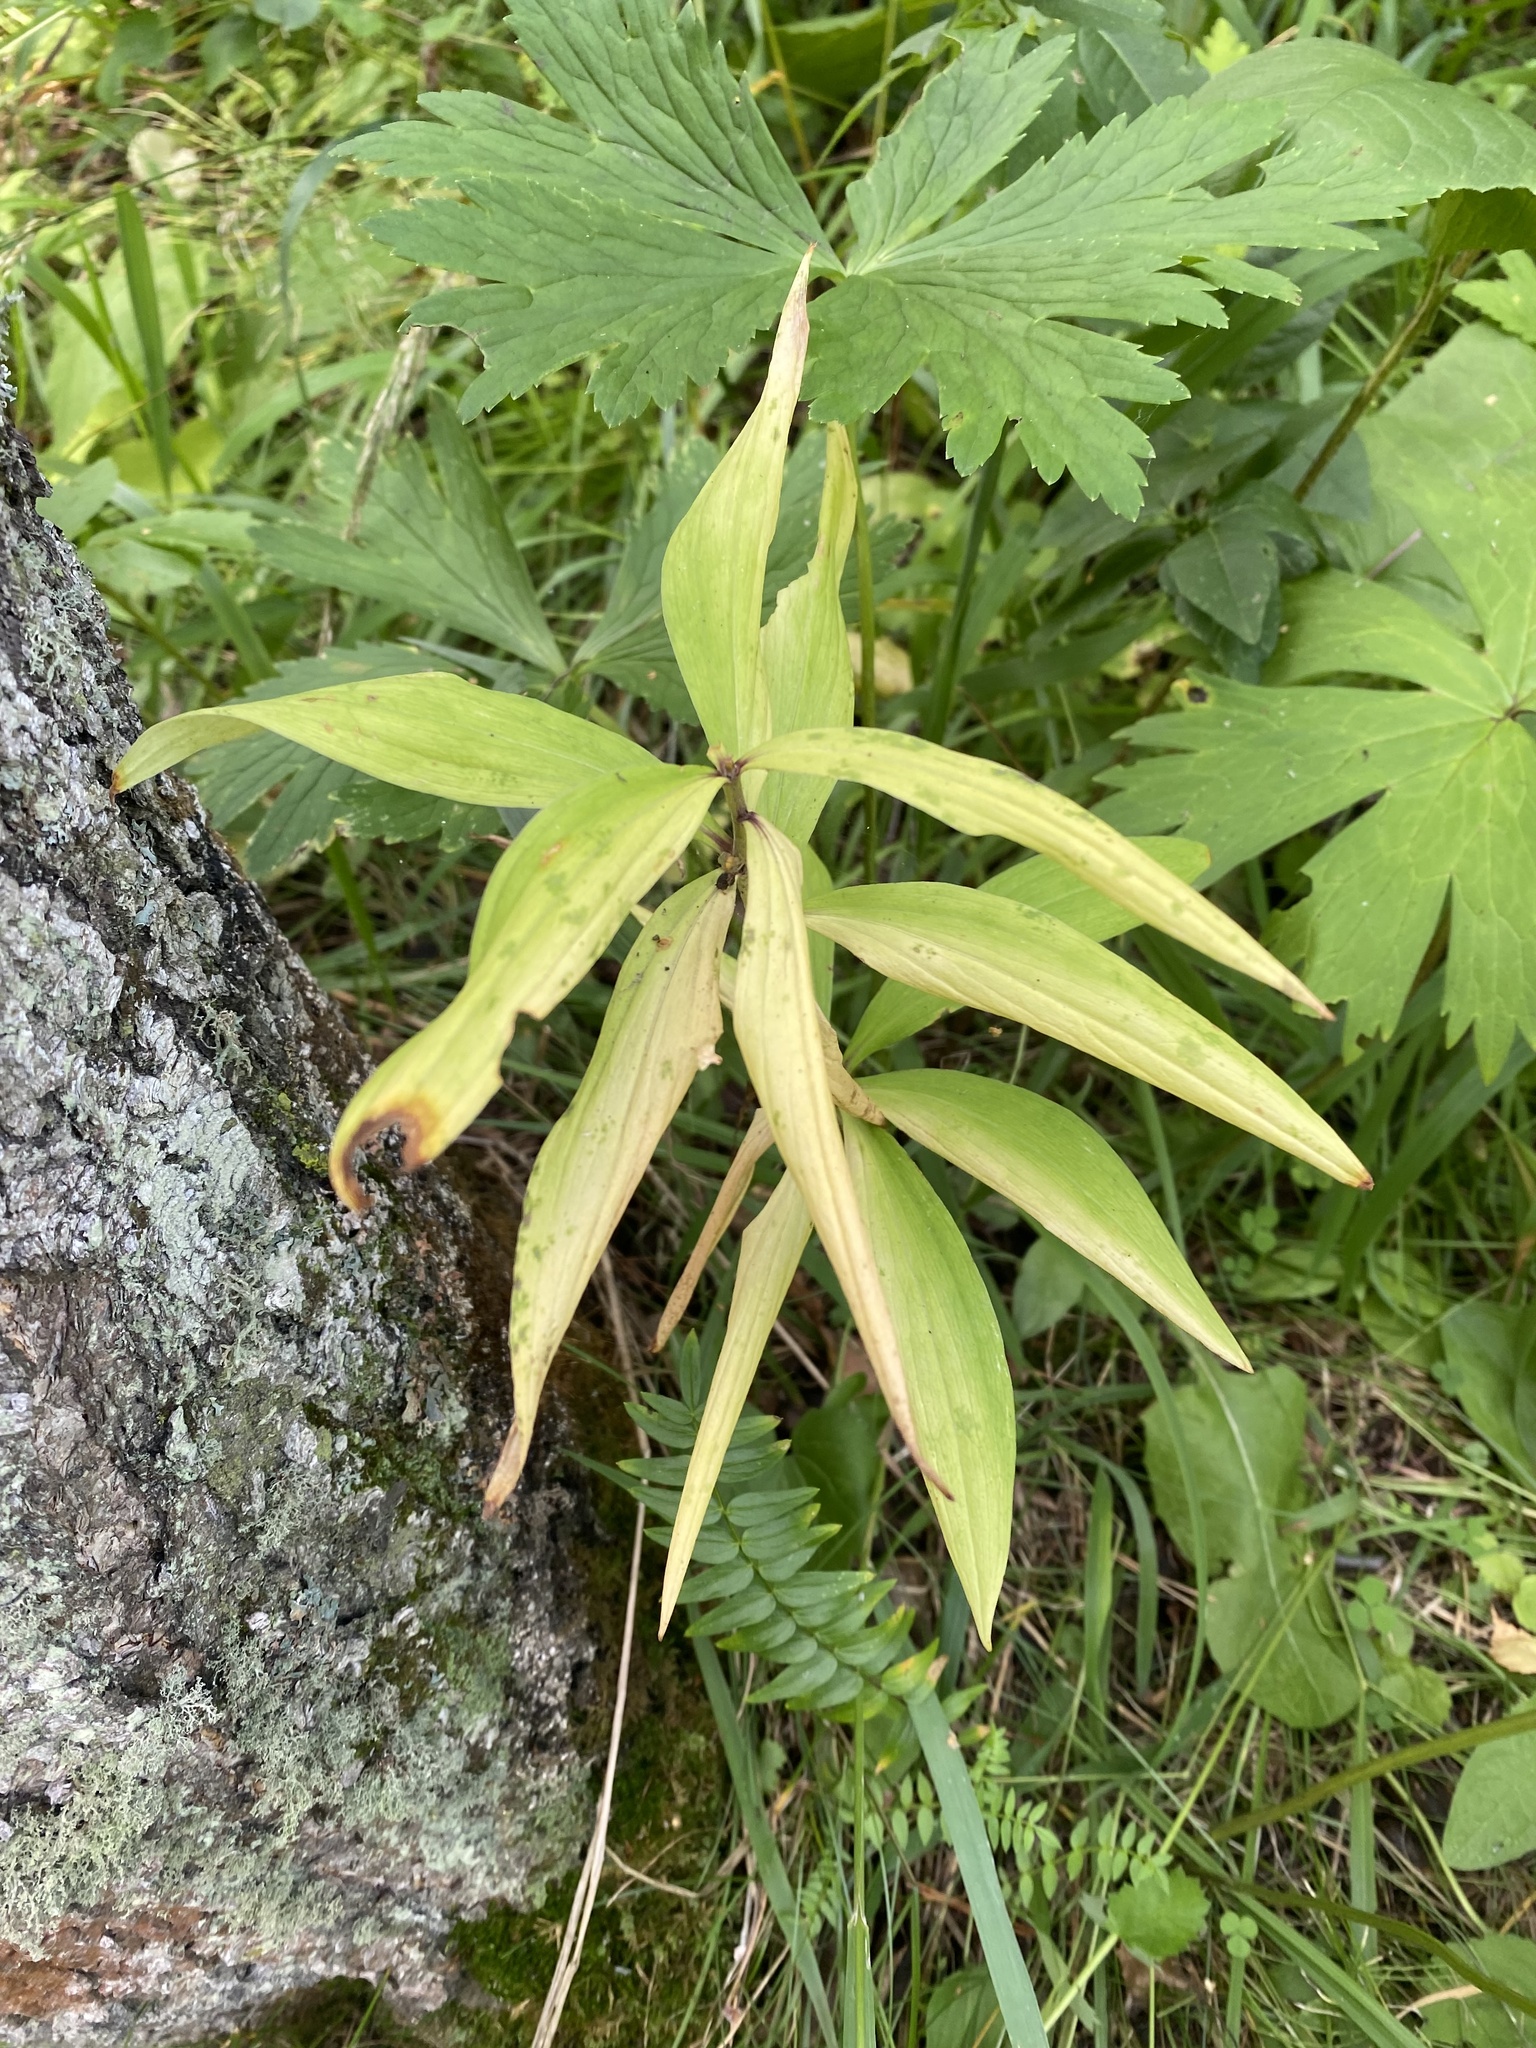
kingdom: Plantae
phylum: Tracheophyta
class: Liliopsida
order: Liliales
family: Liliaceae
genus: Lilium
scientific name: Lilium martagon
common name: Martagon lily
